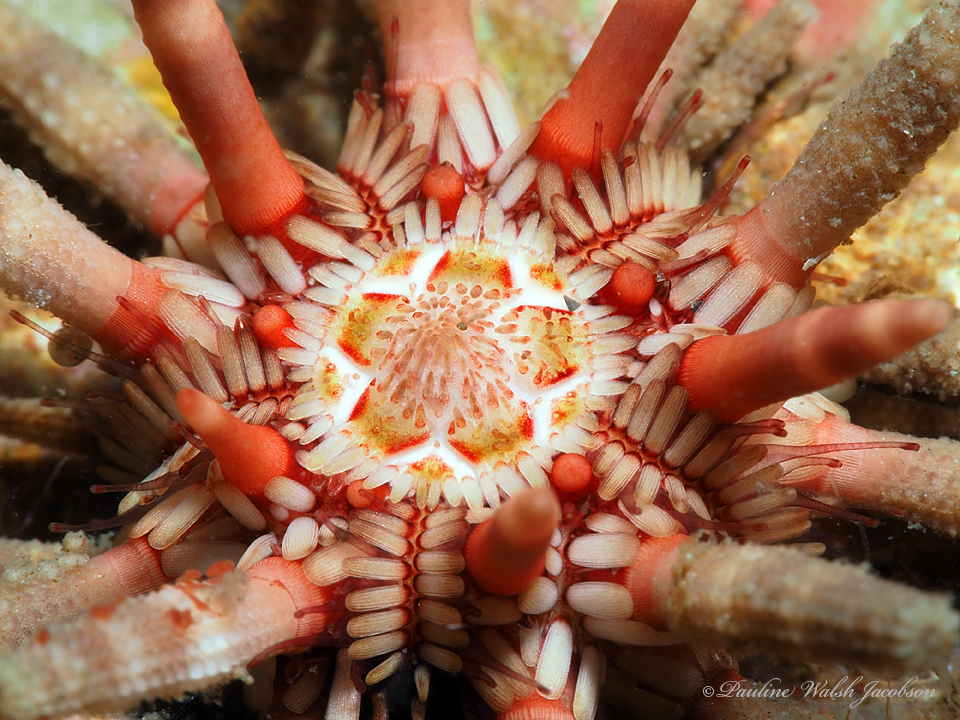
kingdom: Animalia
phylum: Echinodermata
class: Echinoidea
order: Cidaroida
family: Cidaridae
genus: Eucidaris
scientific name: Eucidaris tribuloides
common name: Slate pencil urchin
